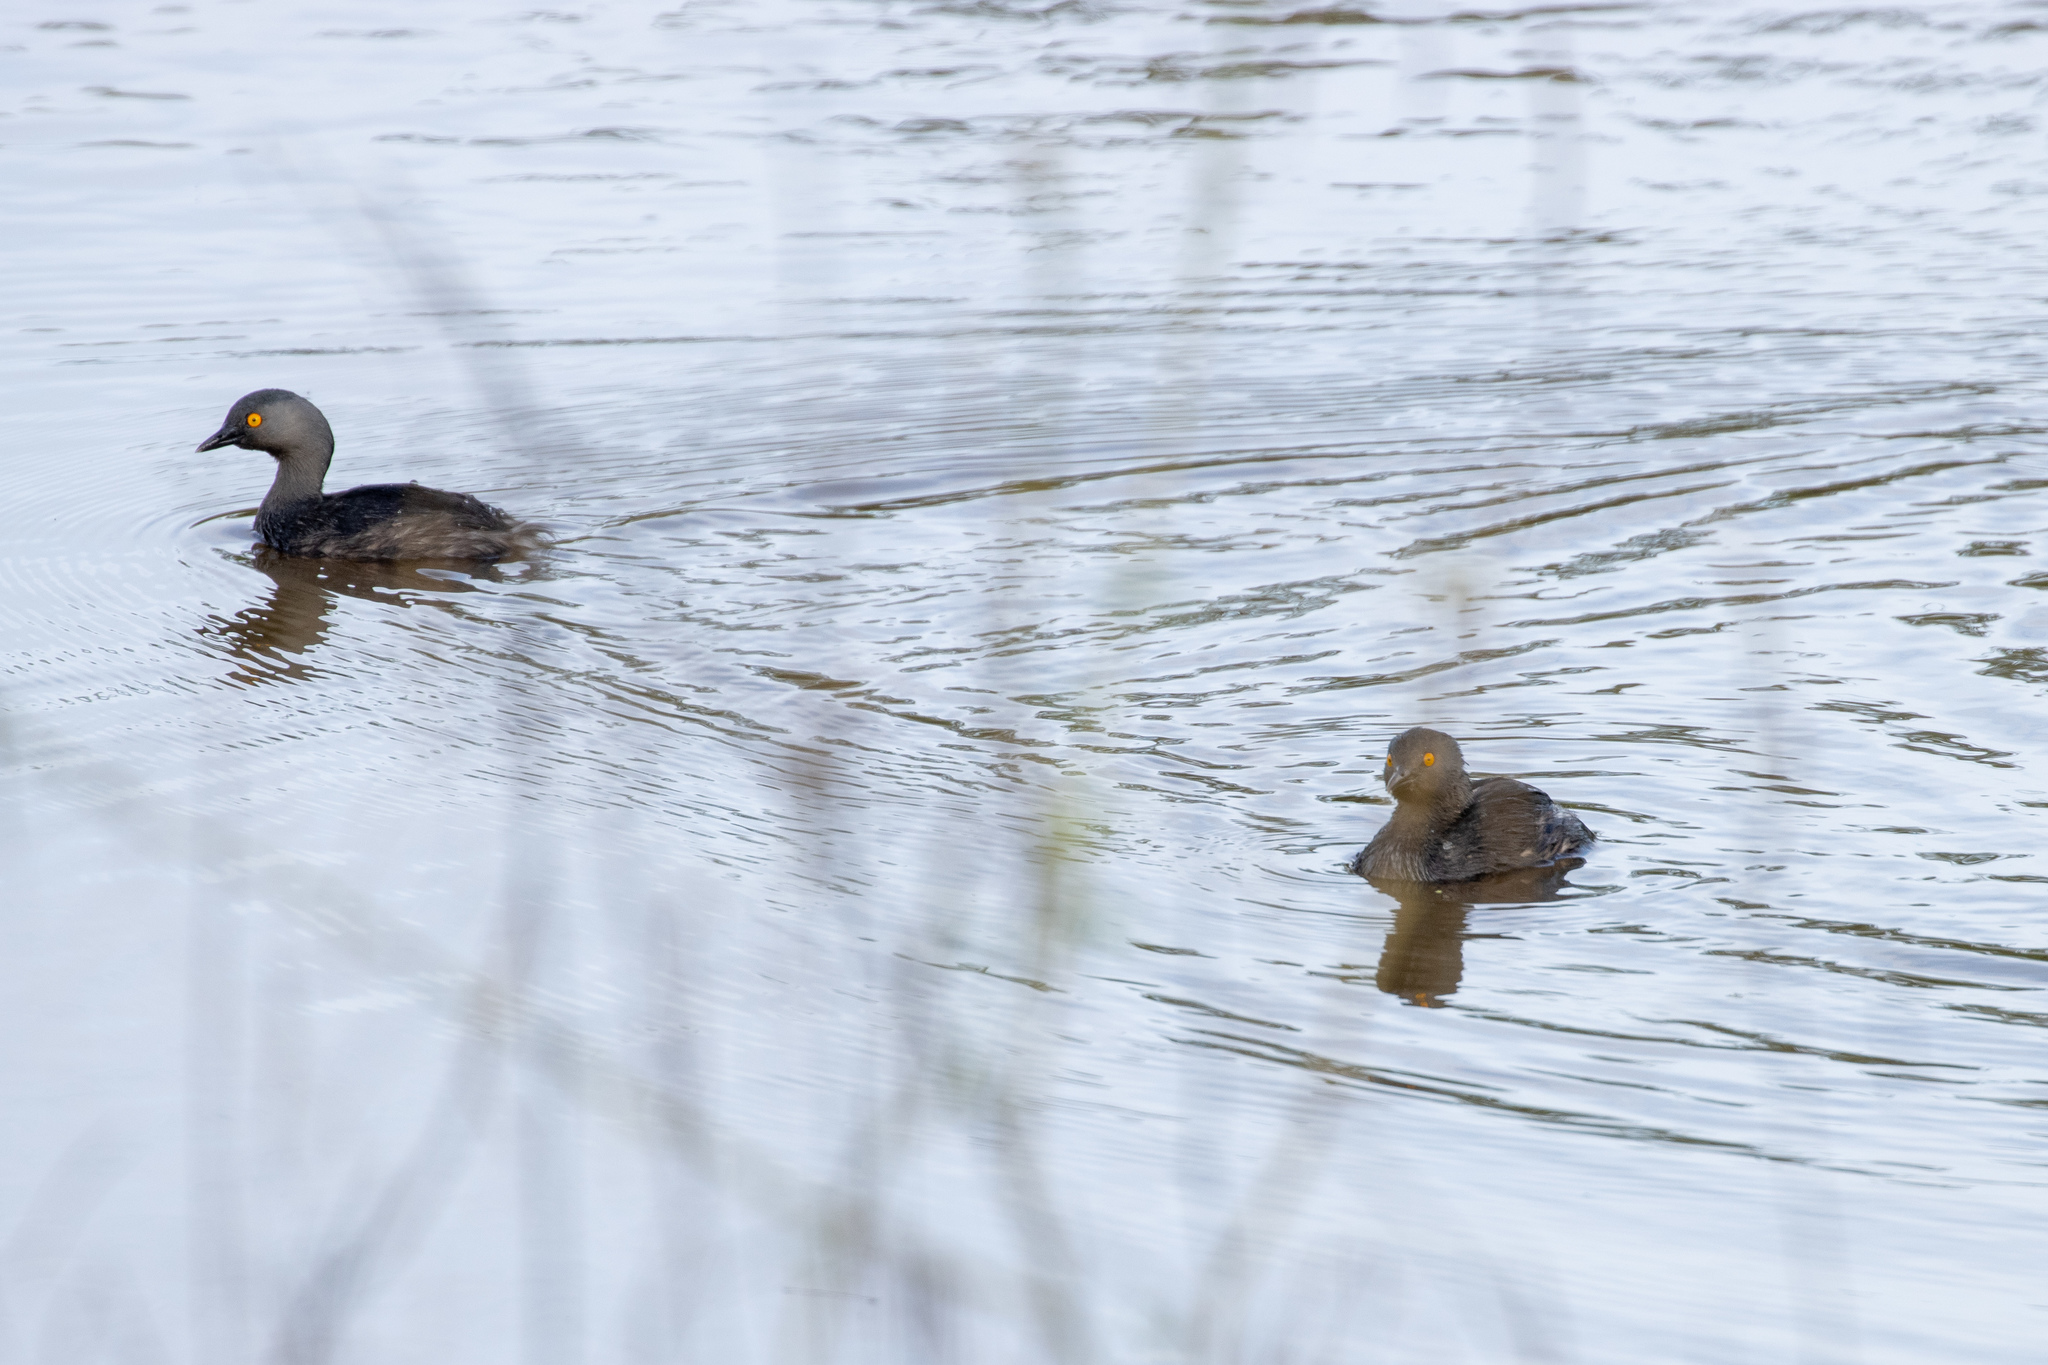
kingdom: Animalia
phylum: Chordata
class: Aves
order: Podicipediformes
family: Podicipedidae
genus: Tachybaptus
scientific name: Tachybaptus dominicus
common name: Least grebe
